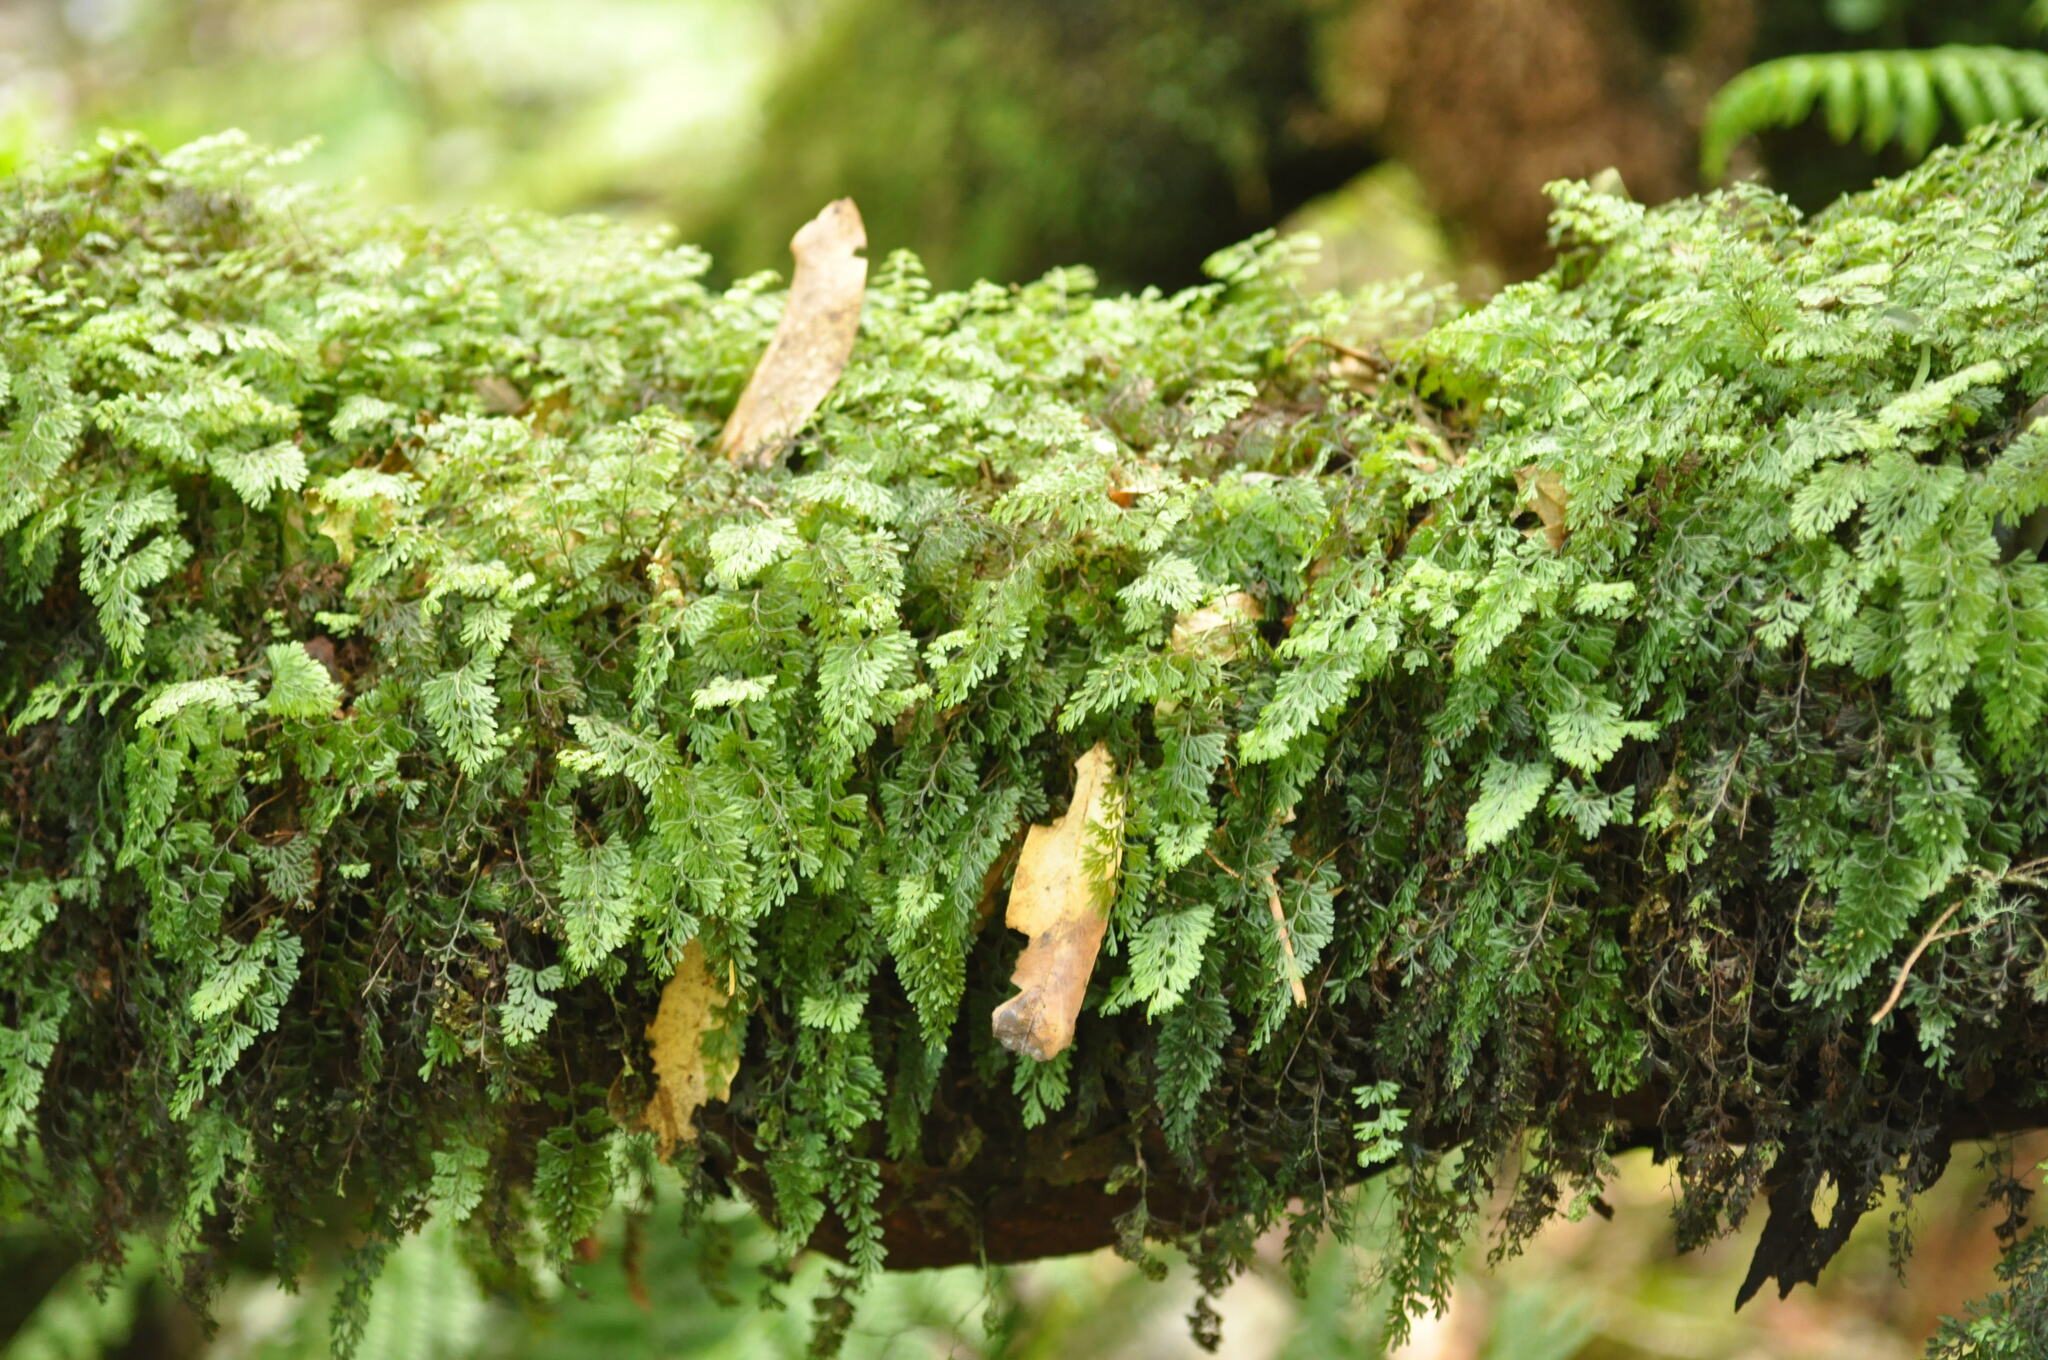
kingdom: Plantae
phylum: Tracheophyta
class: Polypodiopsida
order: Hymenophyllales
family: Hymenophyllaceae
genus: Hymenophyllum
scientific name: Hymenophyllum tunbrigense
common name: Tunbridge filmy fern
